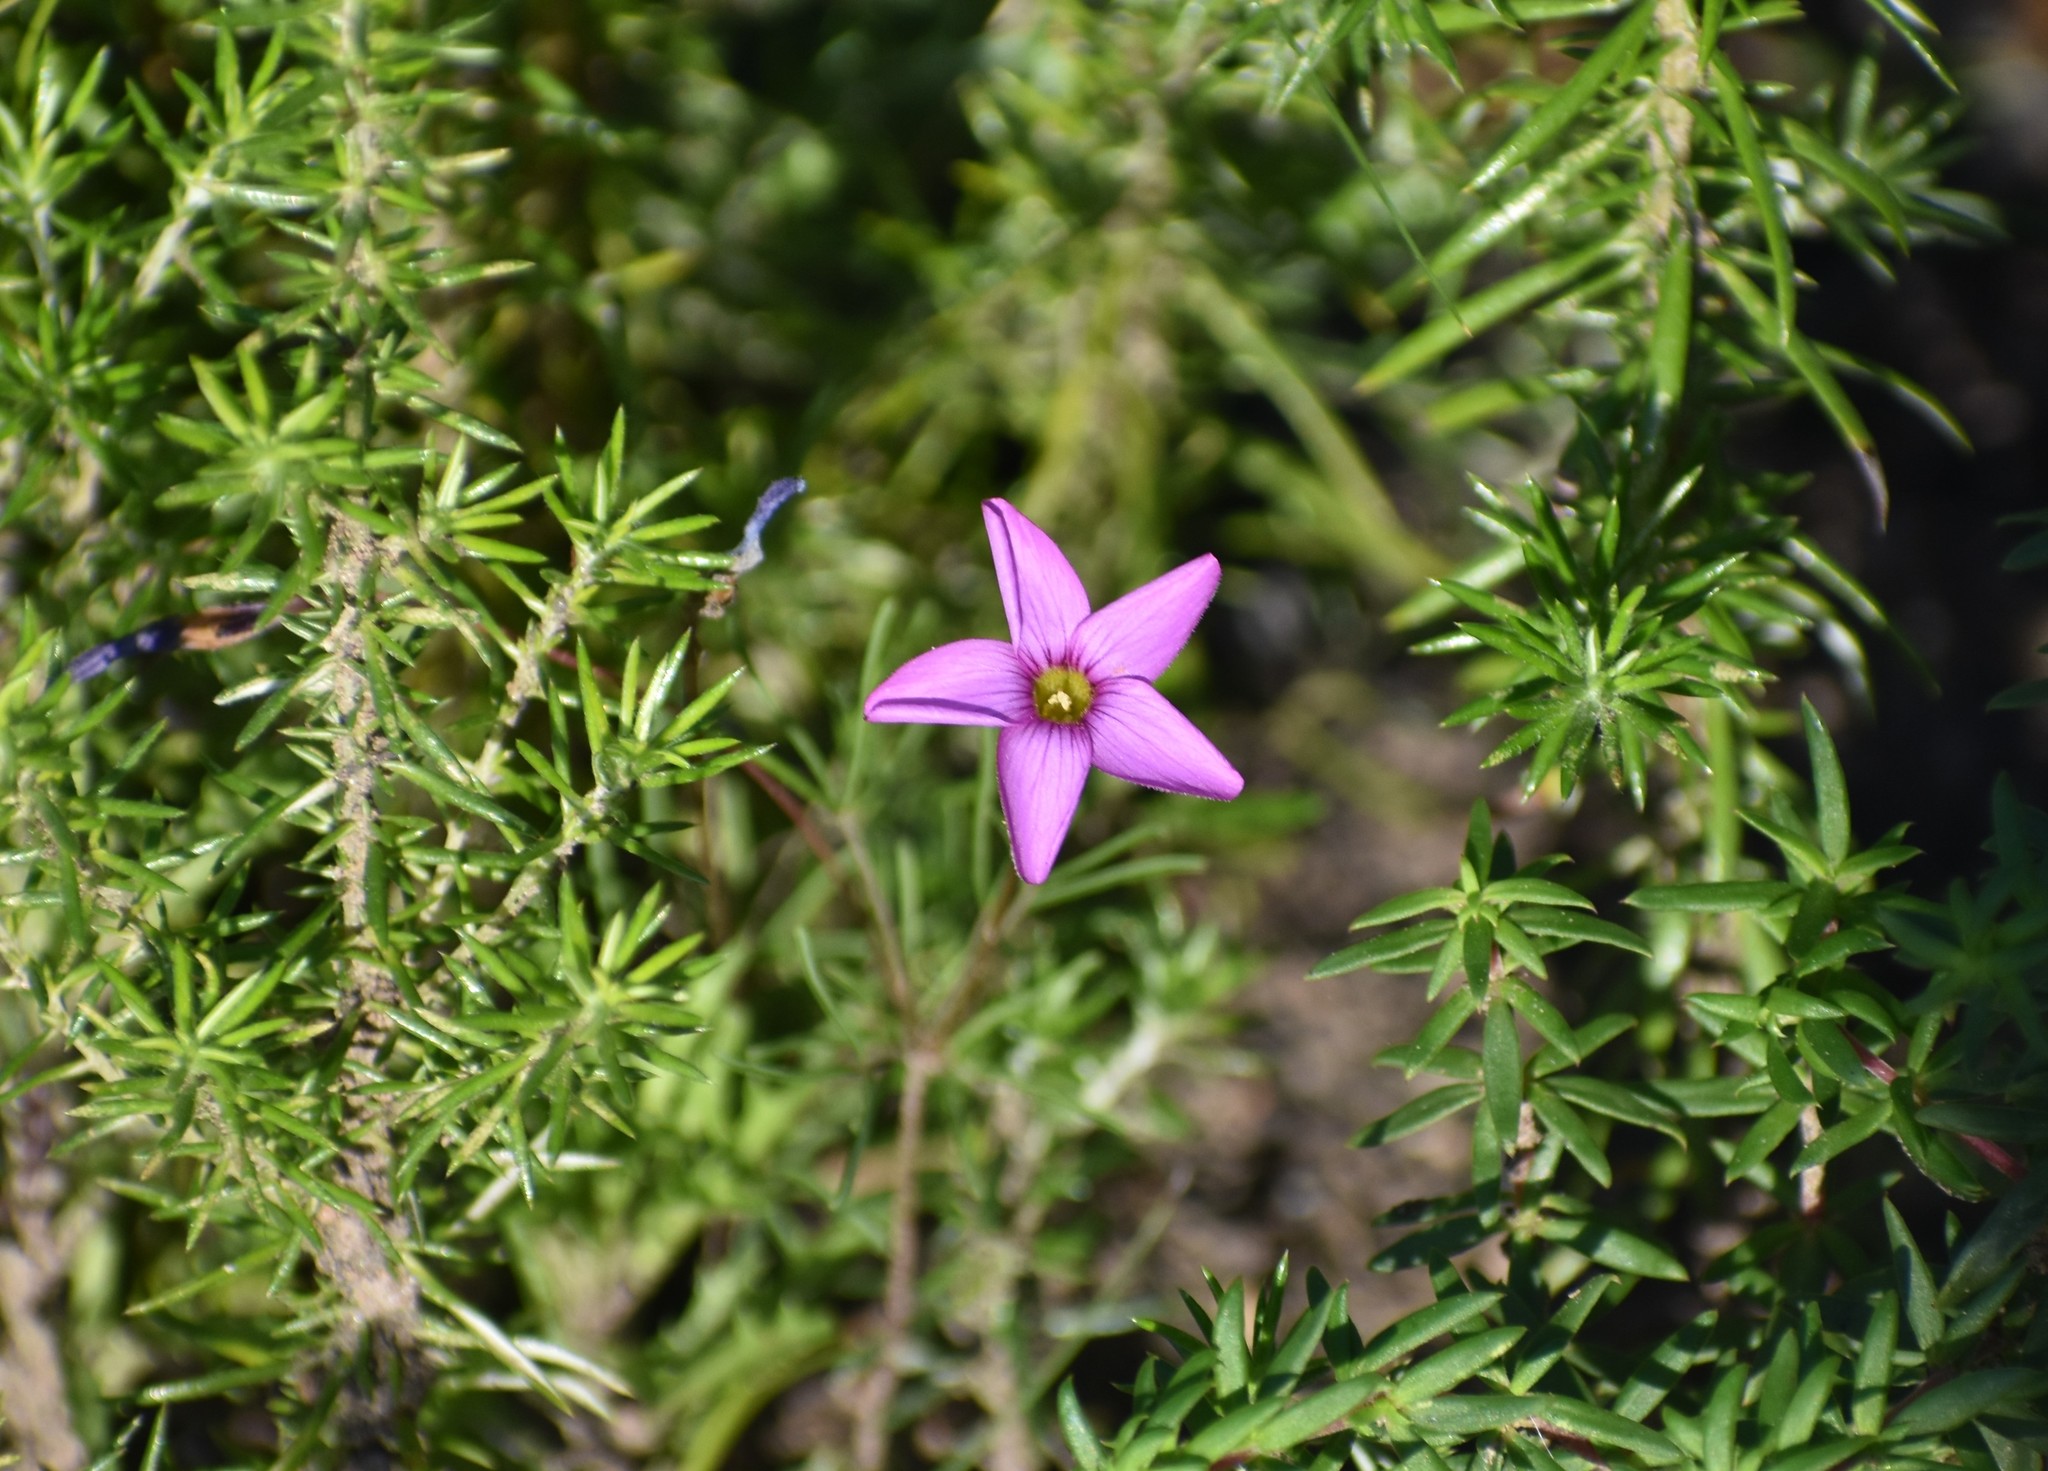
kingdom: Plantae
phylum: Tracheophyta
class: Magnoliopsida
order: Oxalidales
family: Oxalidaceae
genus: Oxalis
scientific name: Oxalis polyphylla
